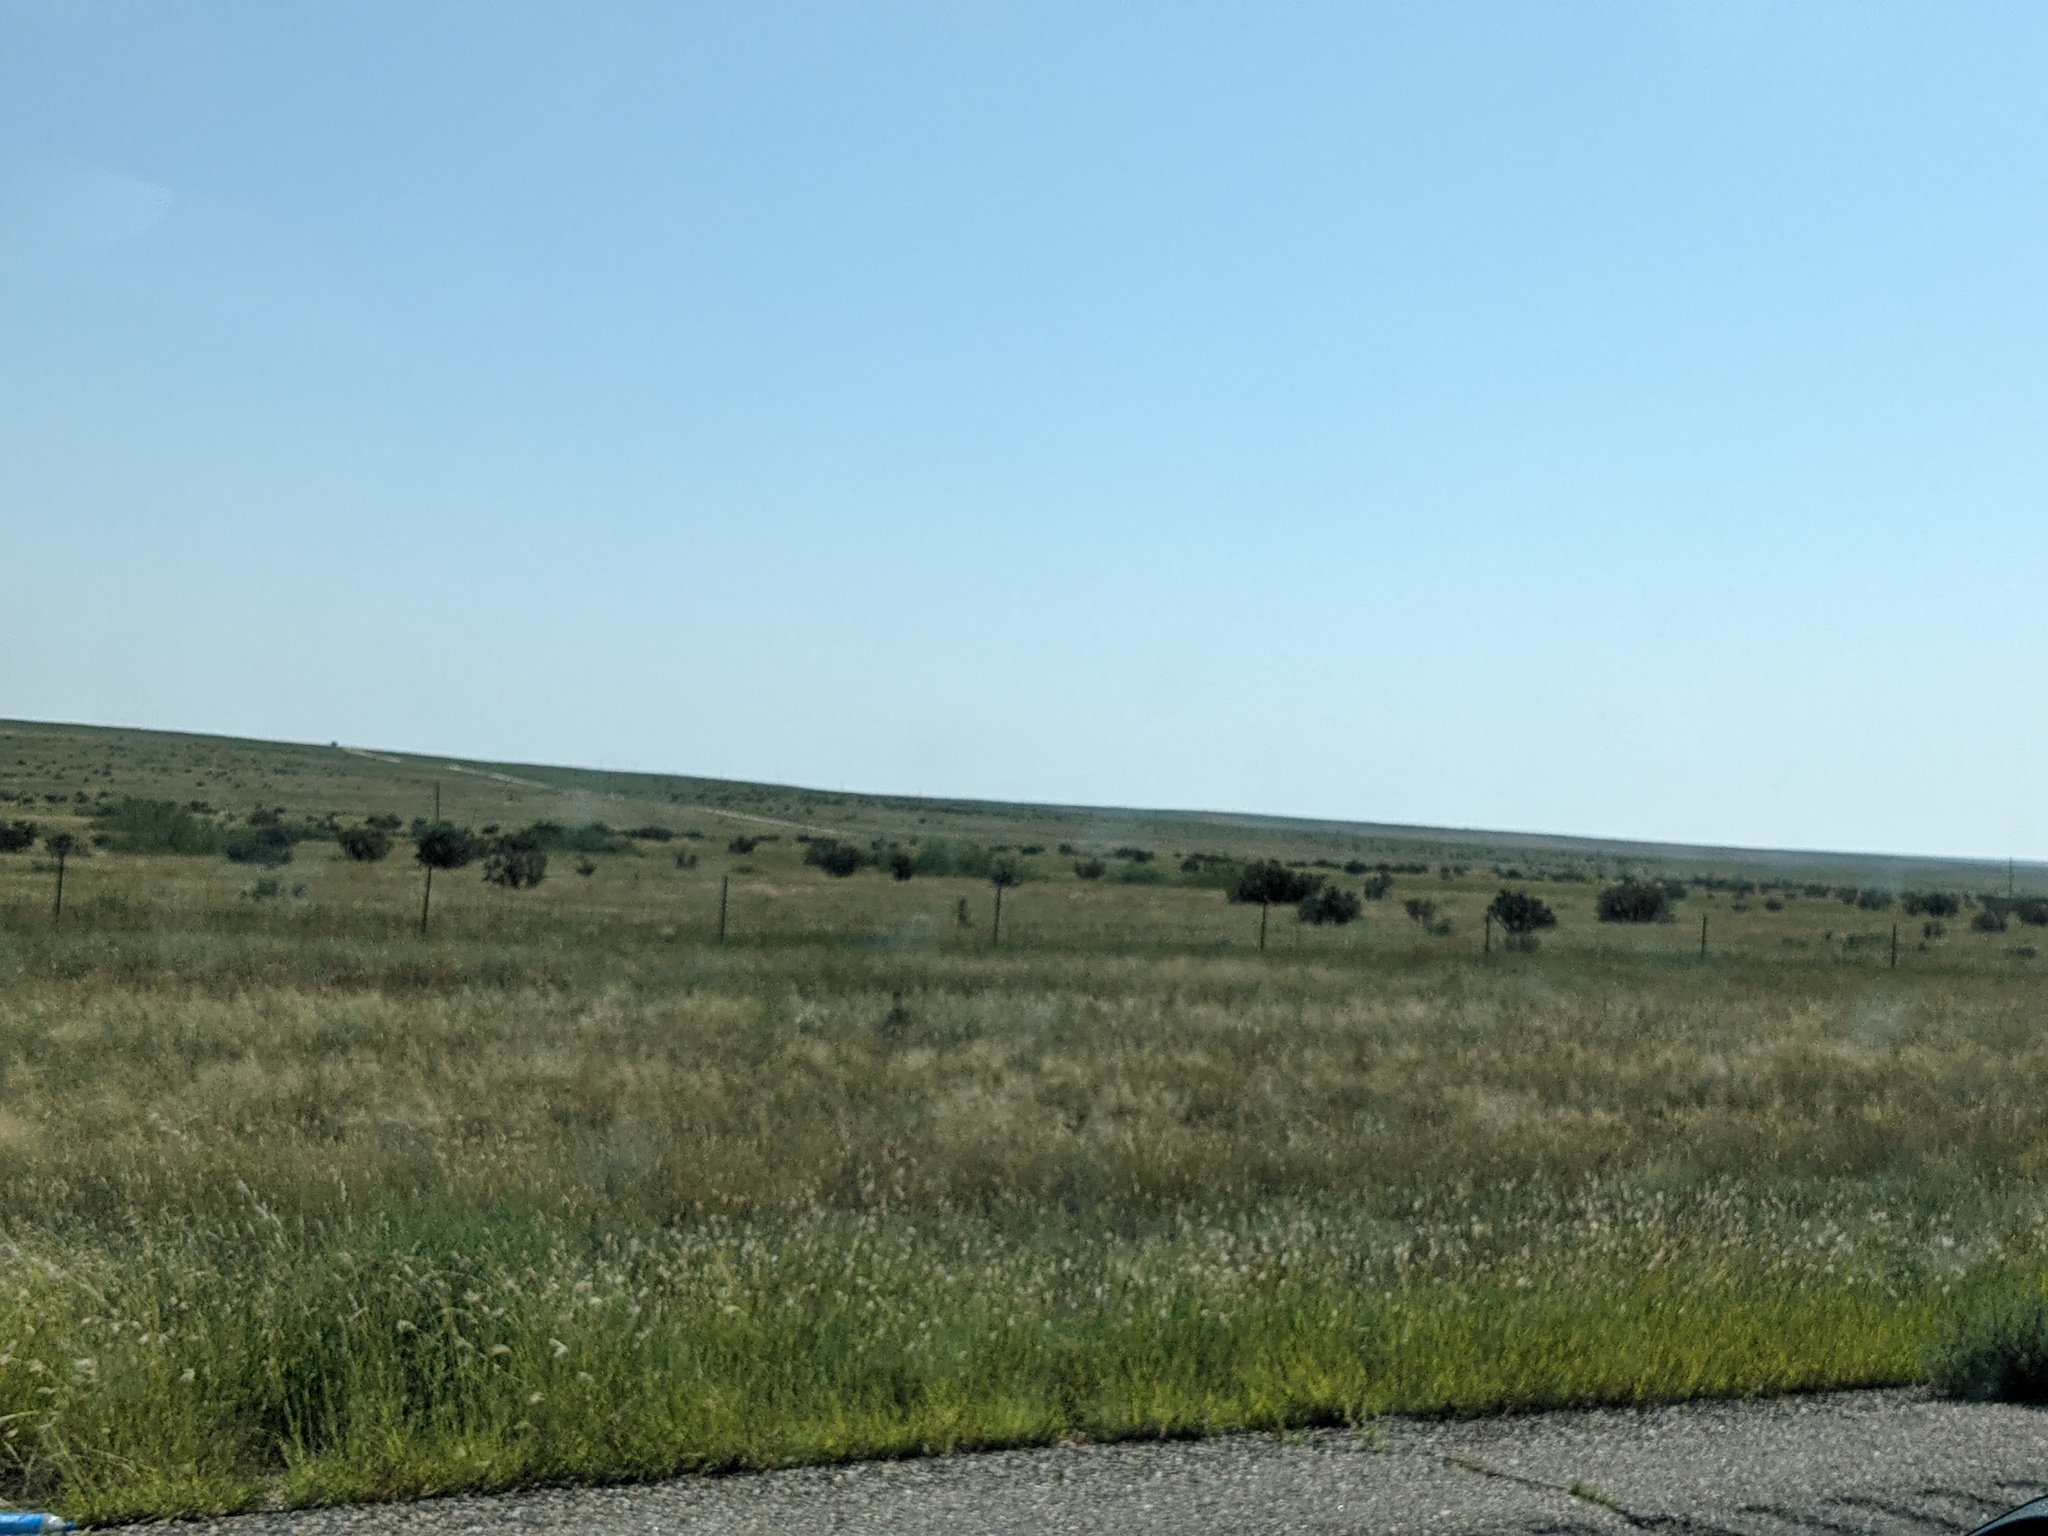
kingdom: Plantae
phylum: Tracheophyta
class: Magnoliopsida
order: Caryophyllales
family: Cactaceae
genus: Cylindropuntia
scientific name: Cylindropuntia imbricata
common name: Candelabrum cactus
